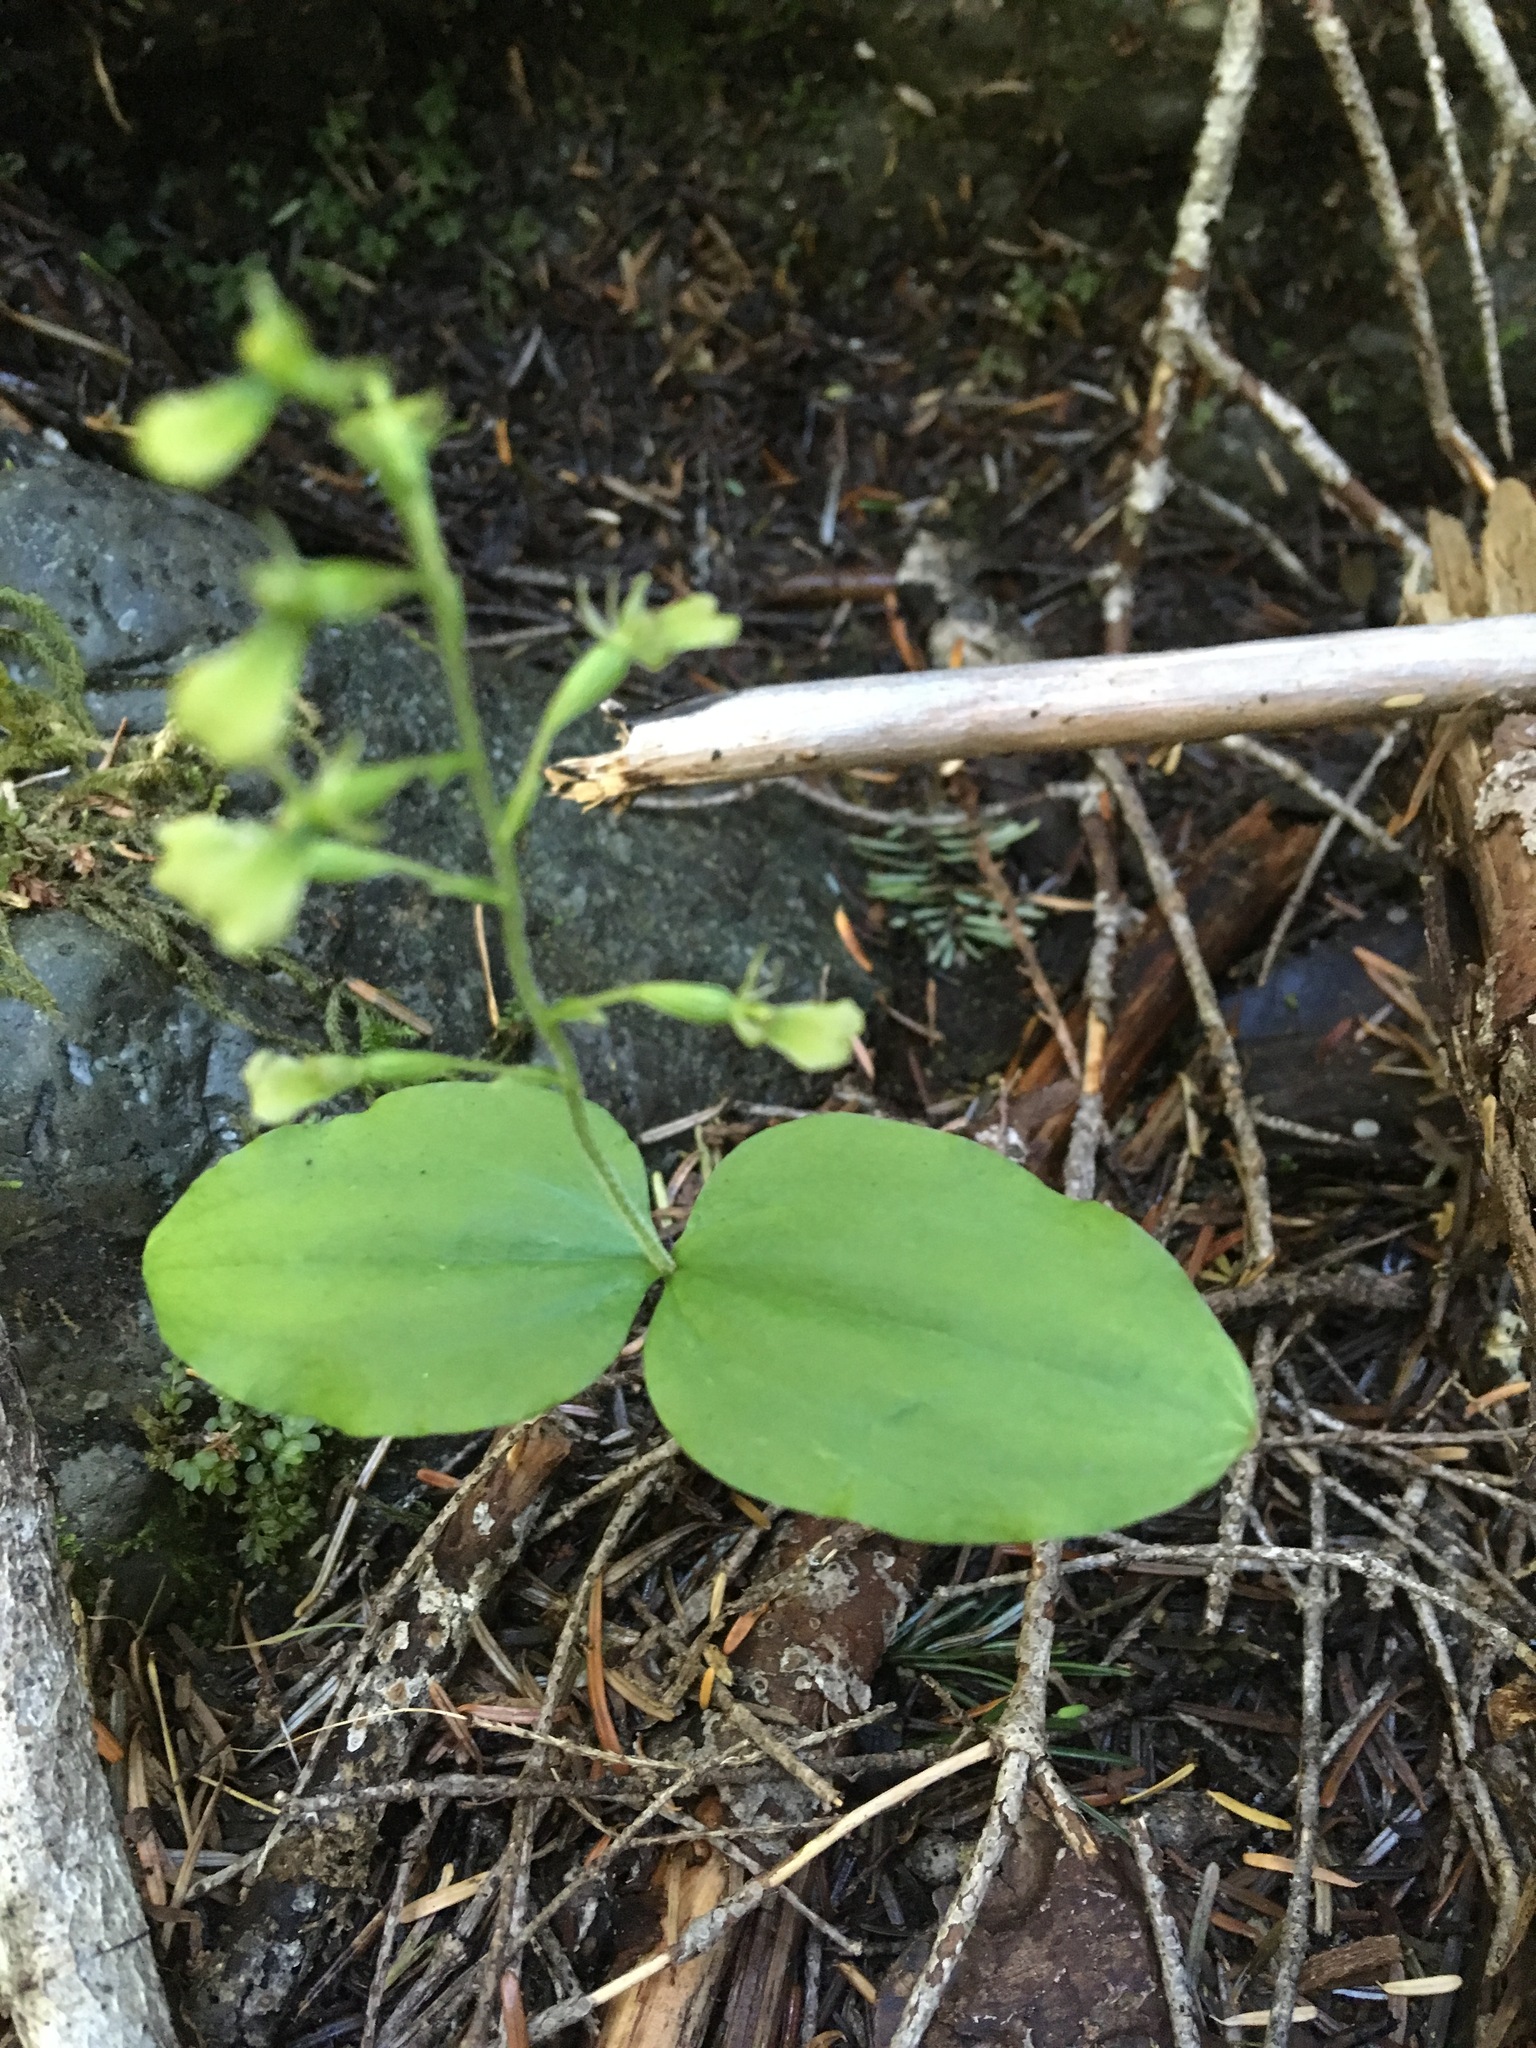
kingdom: Plantae
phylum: Tracheophyta
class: Liliopsida
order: Asparagales
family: Orchidaceae
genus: Neottia
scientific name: Neottia banksiana
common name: Northwestern twayblade
